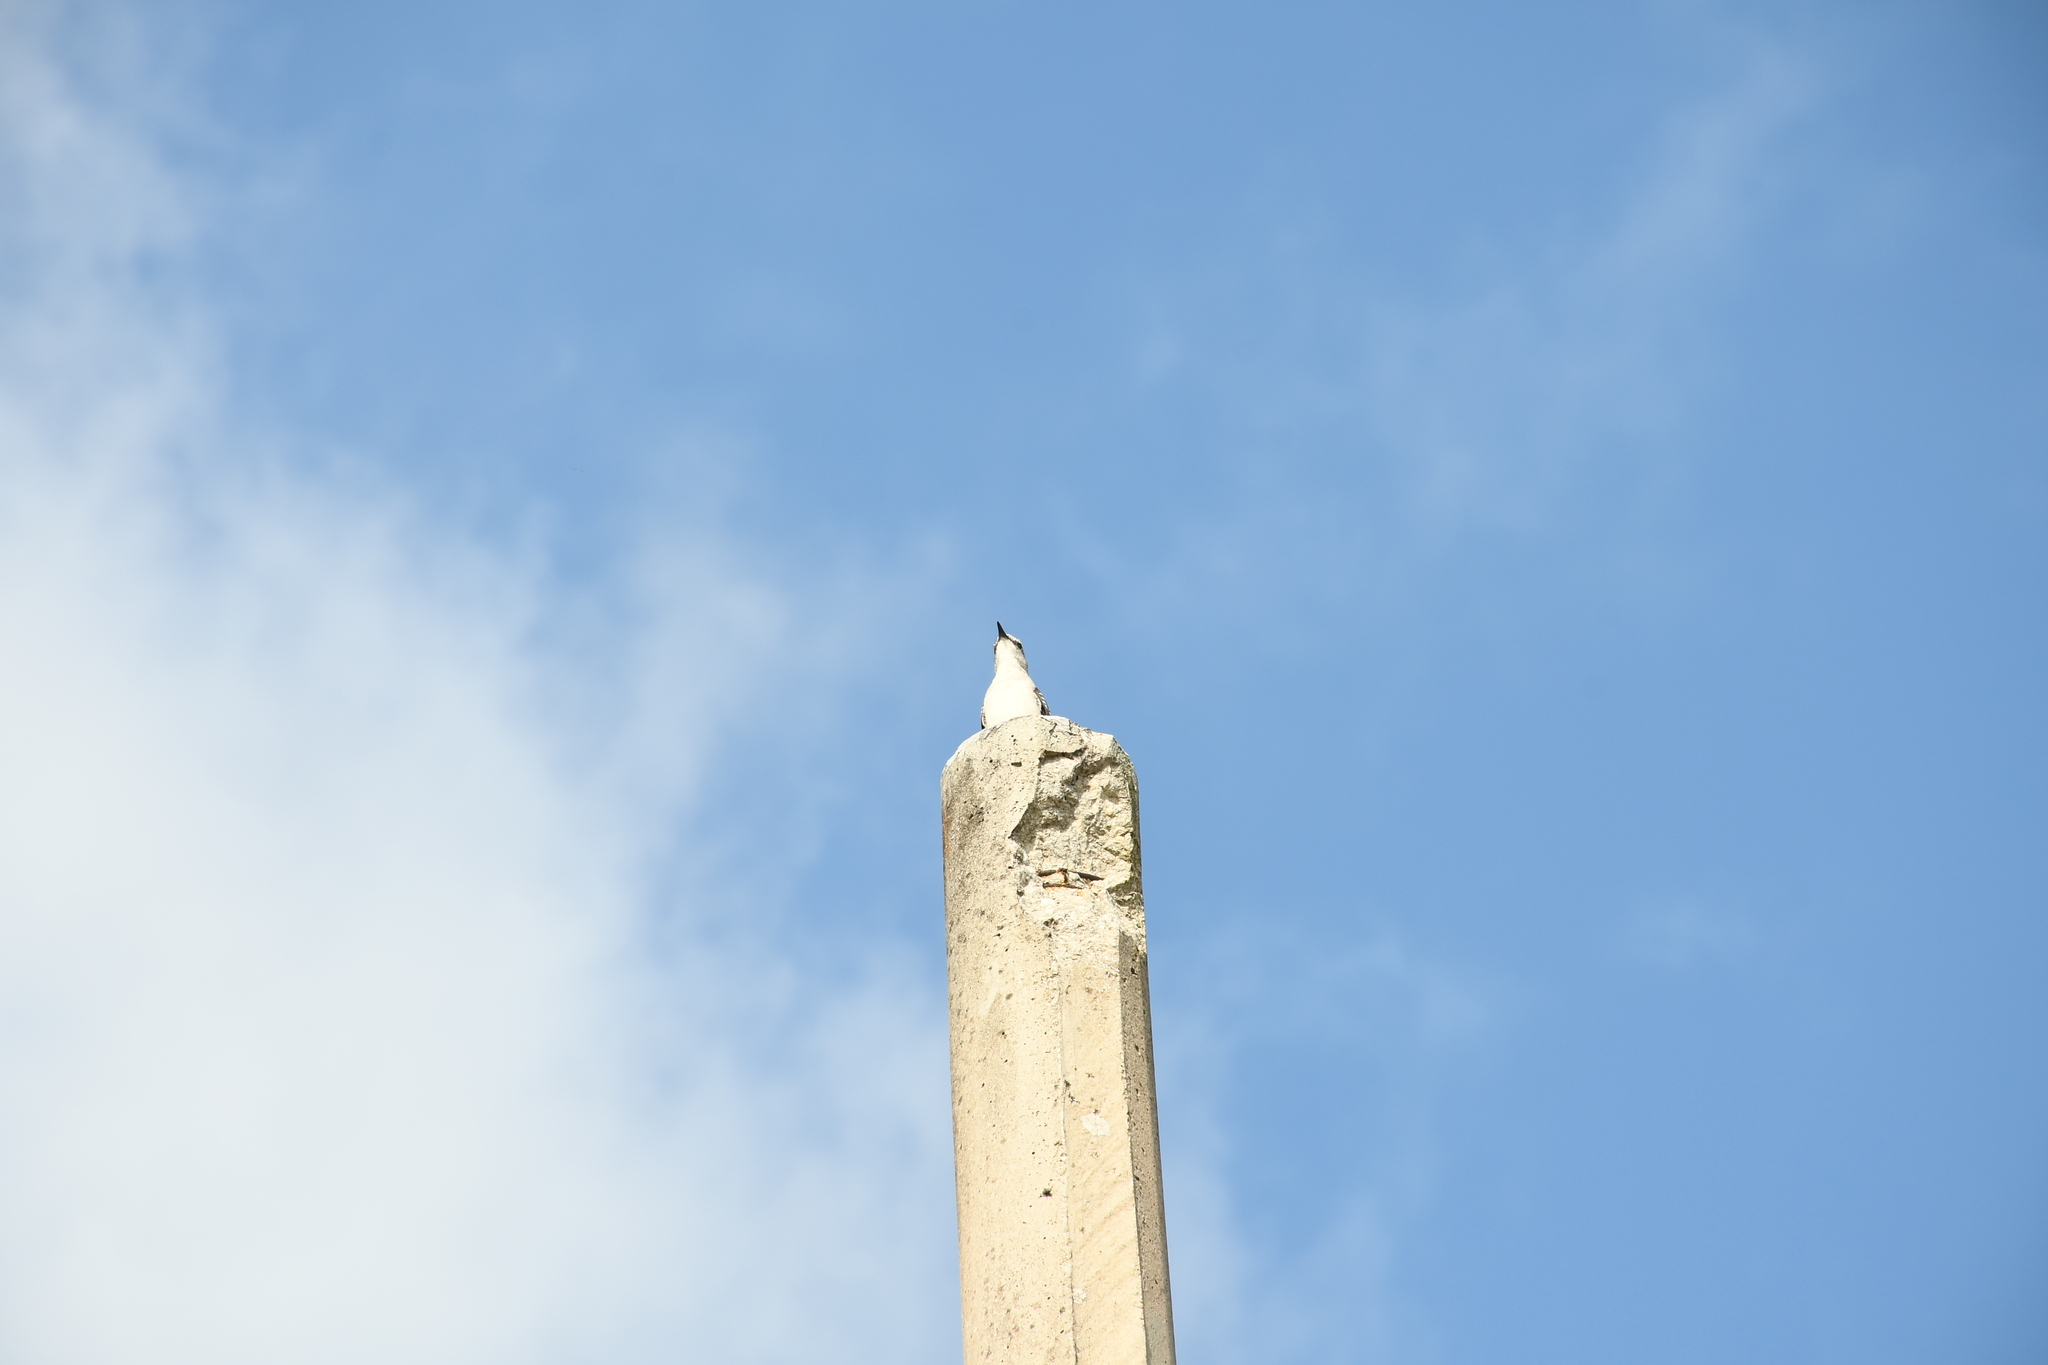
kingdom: Animalia
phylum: Chordata
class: Aves
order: Passeriformes
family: Mimidae
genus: Mimus
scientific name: Mimus gilvus
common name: Tropical mockingbird
